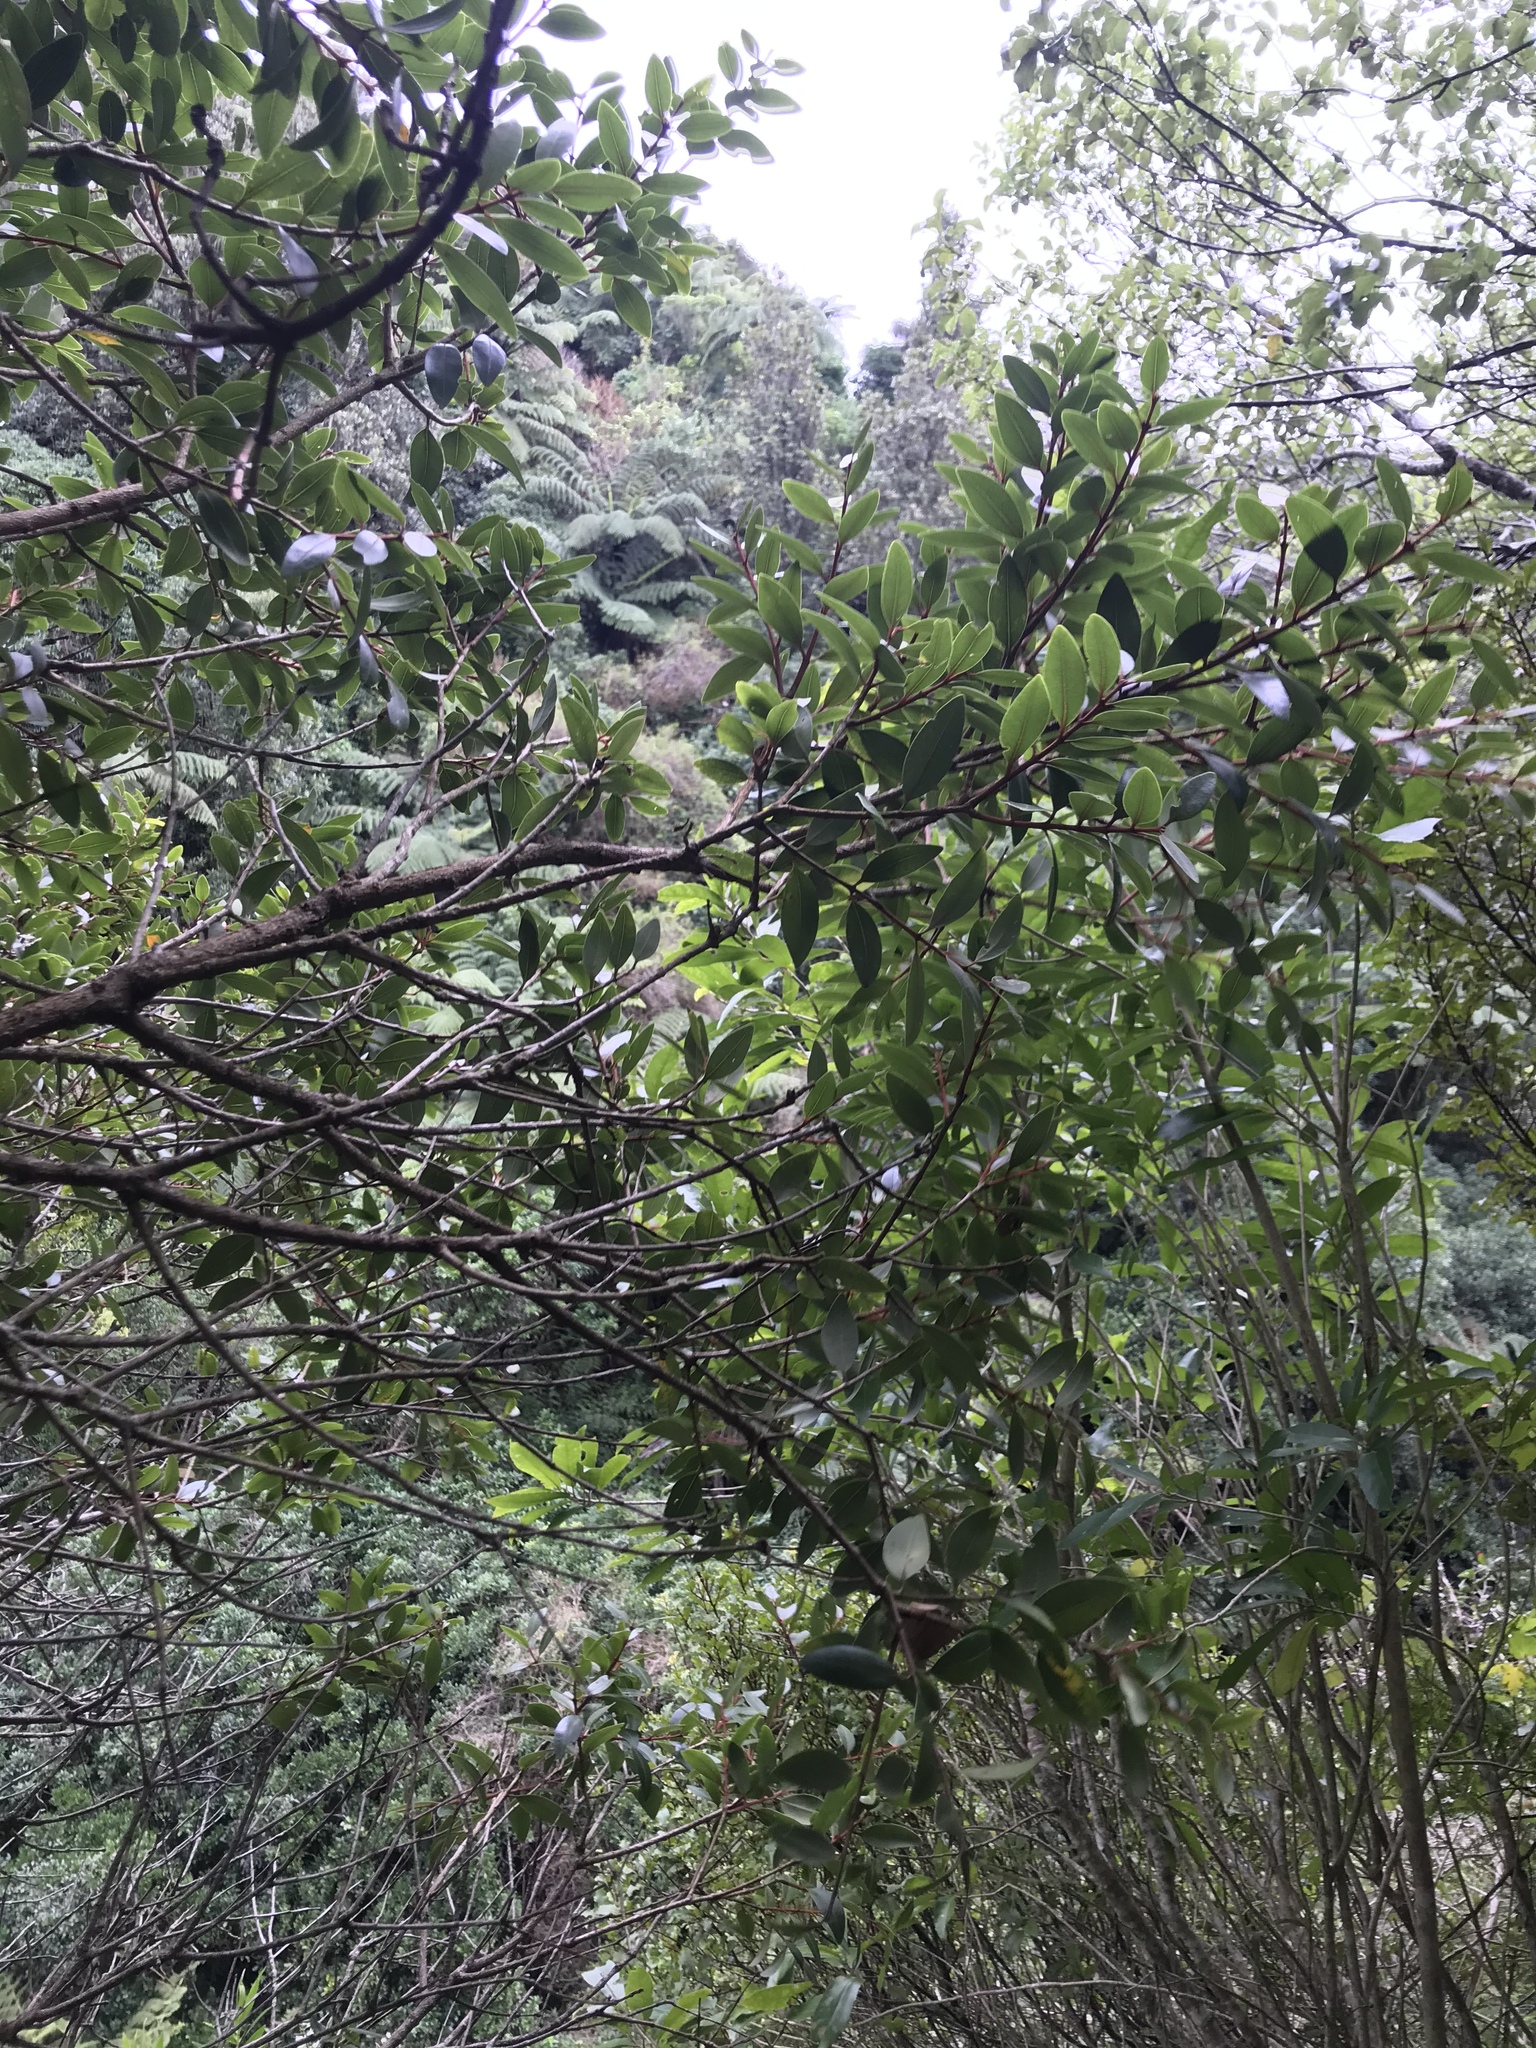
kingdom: Plantae
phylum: Tracheophyta
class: Magnoliopsida
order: Myrtales
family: Myrtaceae
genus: Metrosideros
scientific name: Metrosideros robusta
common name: Northern rata
